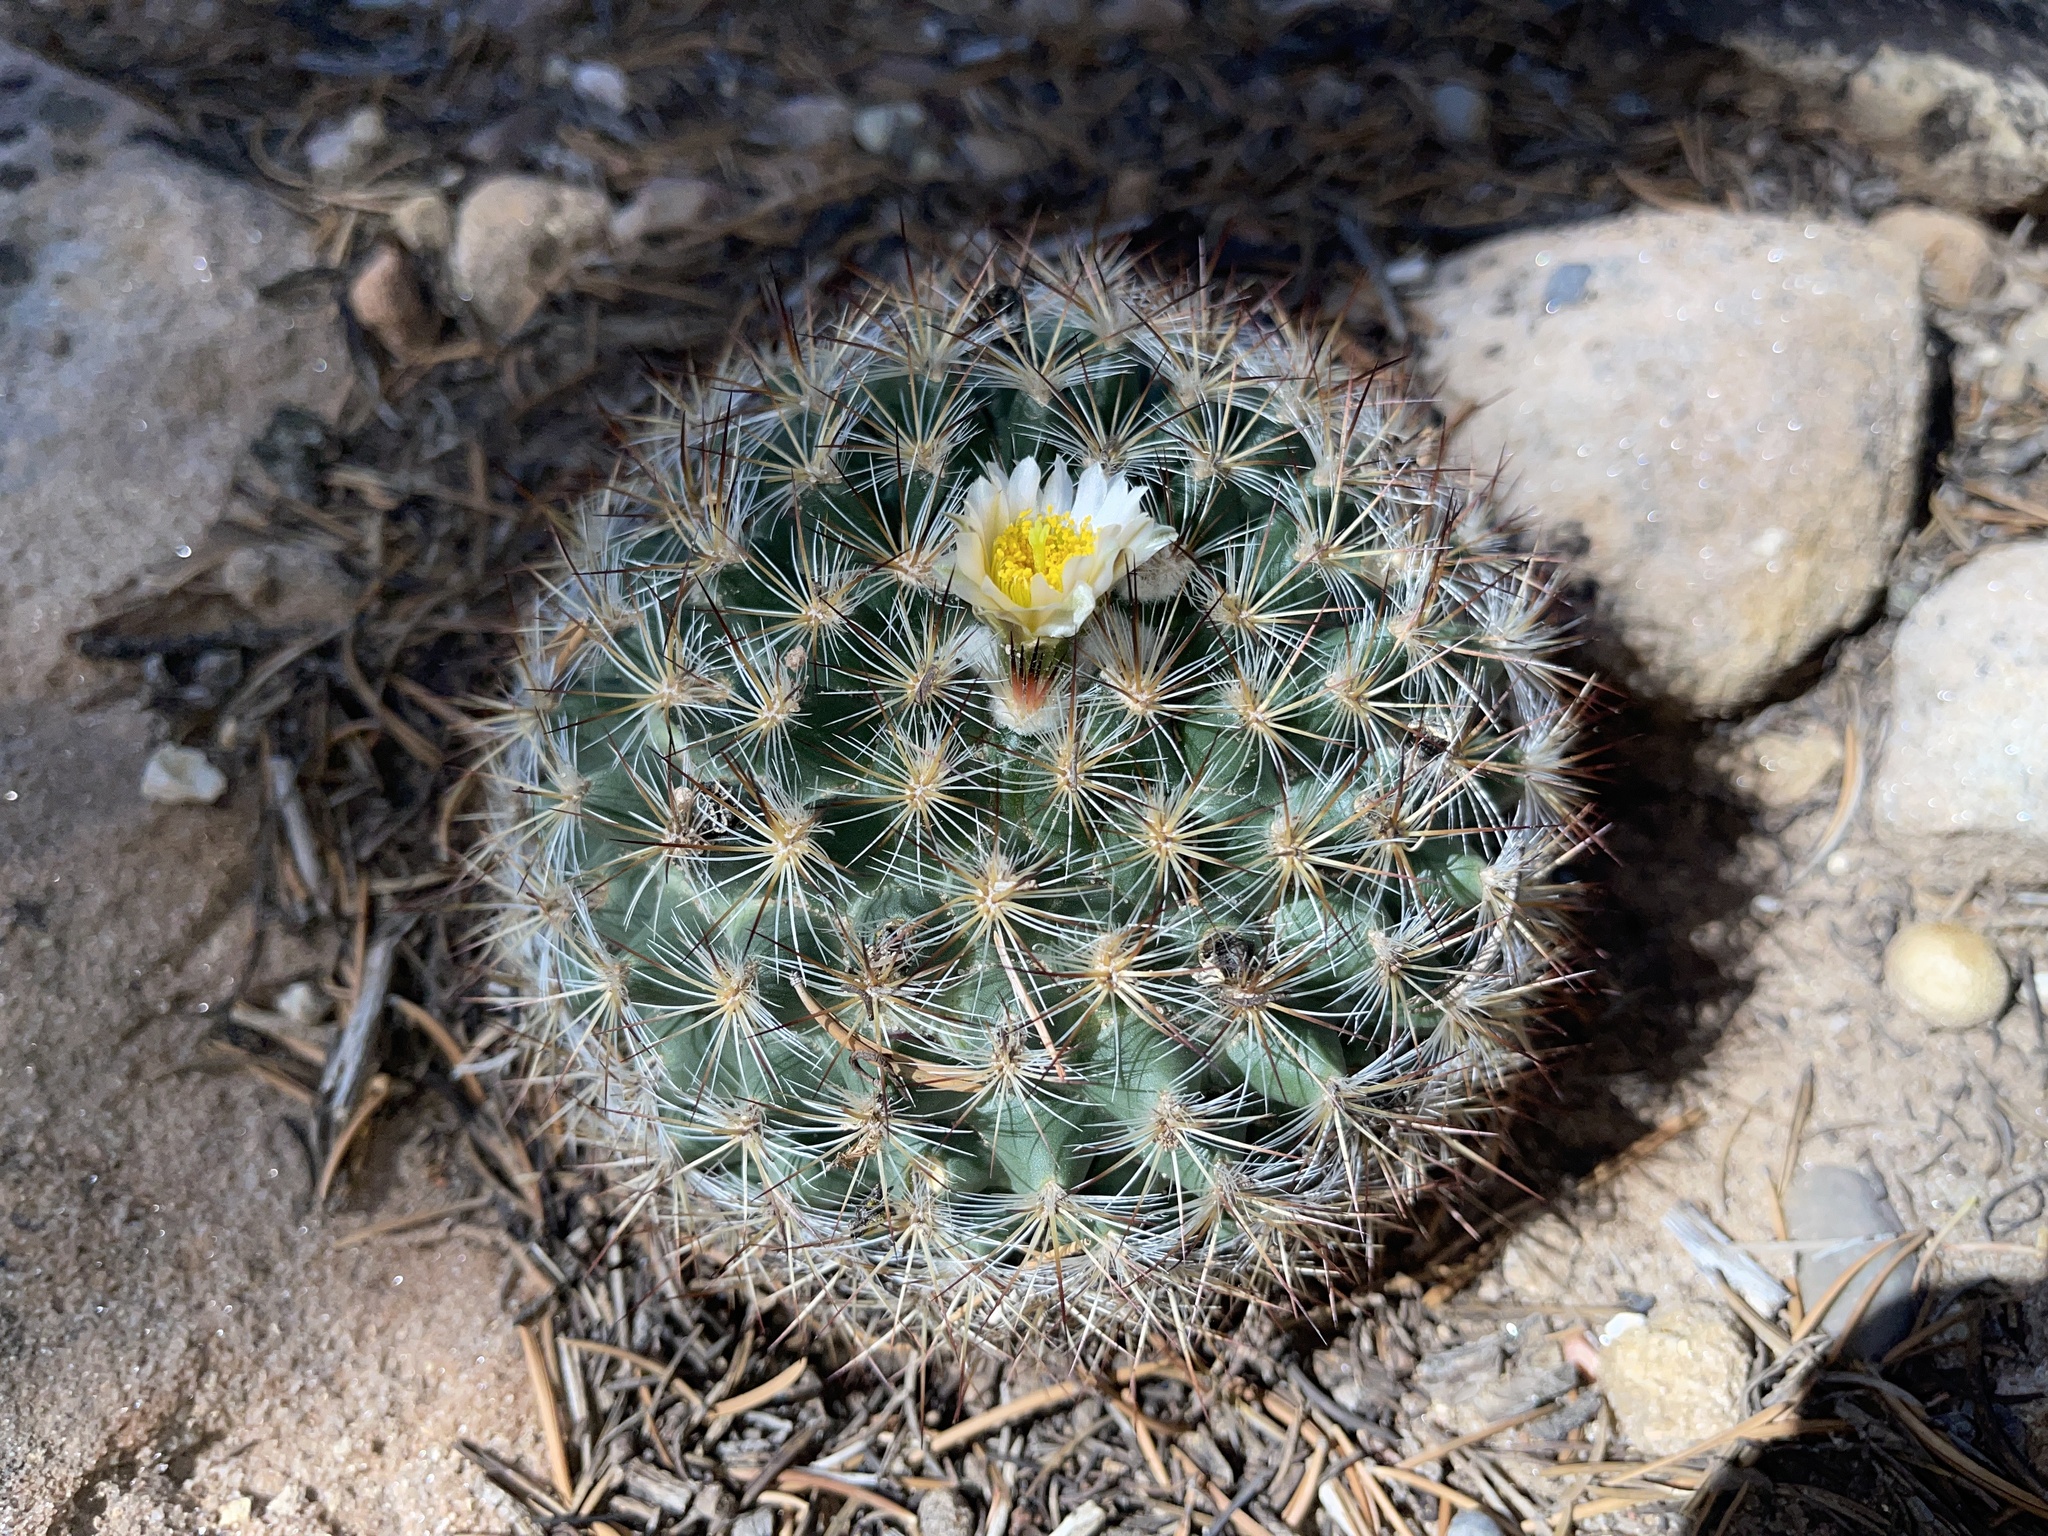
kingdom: Plantae
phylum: Tracheophyta
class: Magnoliopsida
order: Caryophyllales
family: Cactaceae
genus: Pediocactus
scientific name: Pediocactus simpsonii
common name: Simpson's hedgehog cactus
